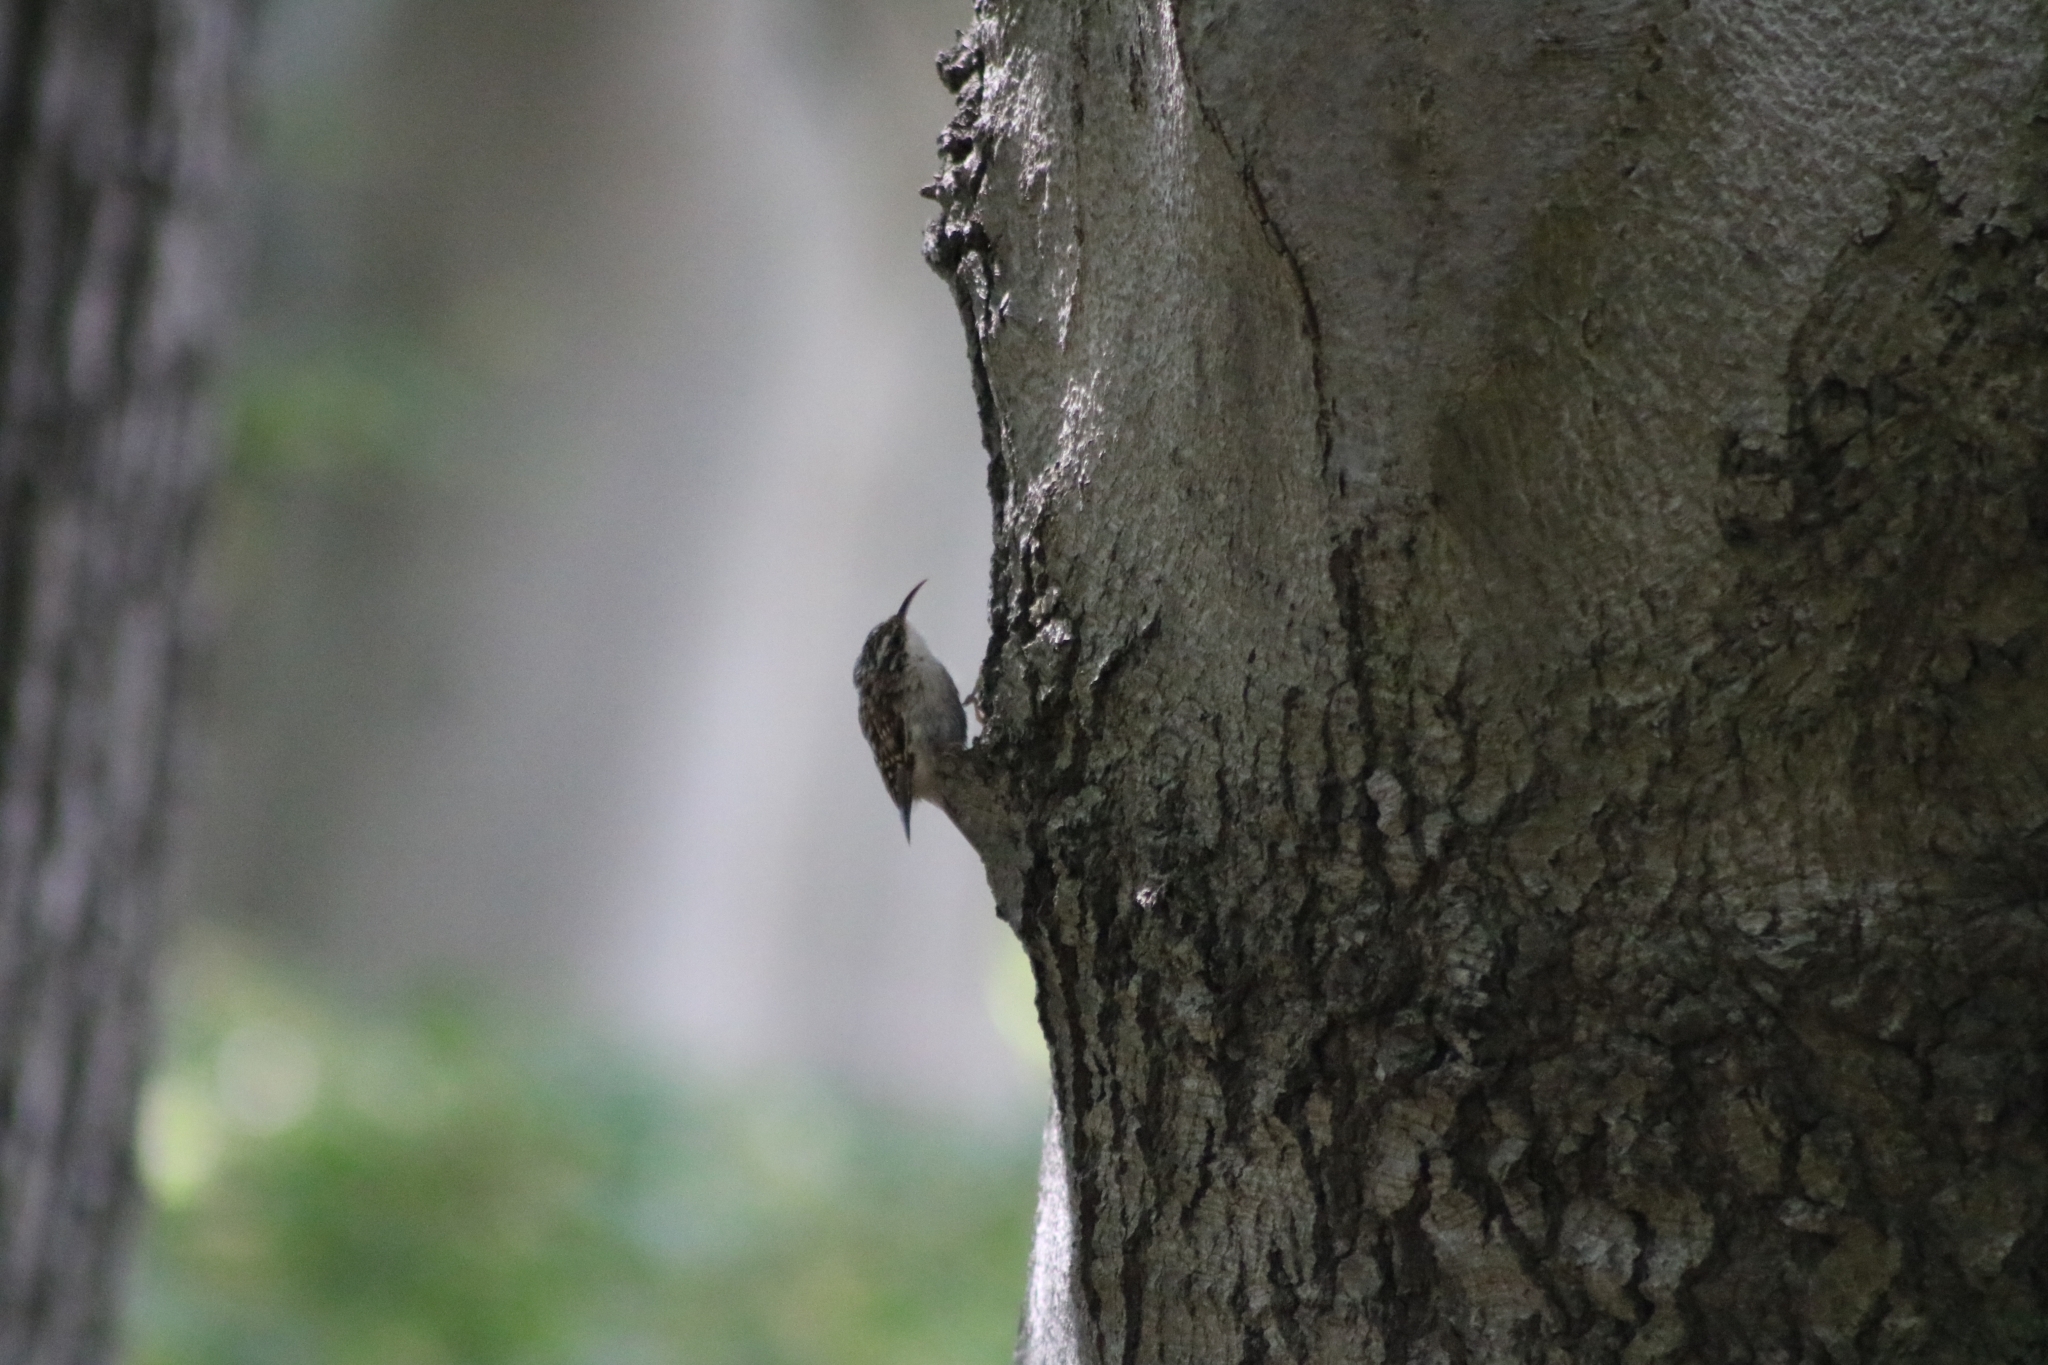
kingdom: Animalia
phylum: Chordata
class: Aves
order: Passeriformes
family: Certhiidae
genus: Certhia
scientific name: Certhia brachydactyla
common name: Short-toed treecreeper
